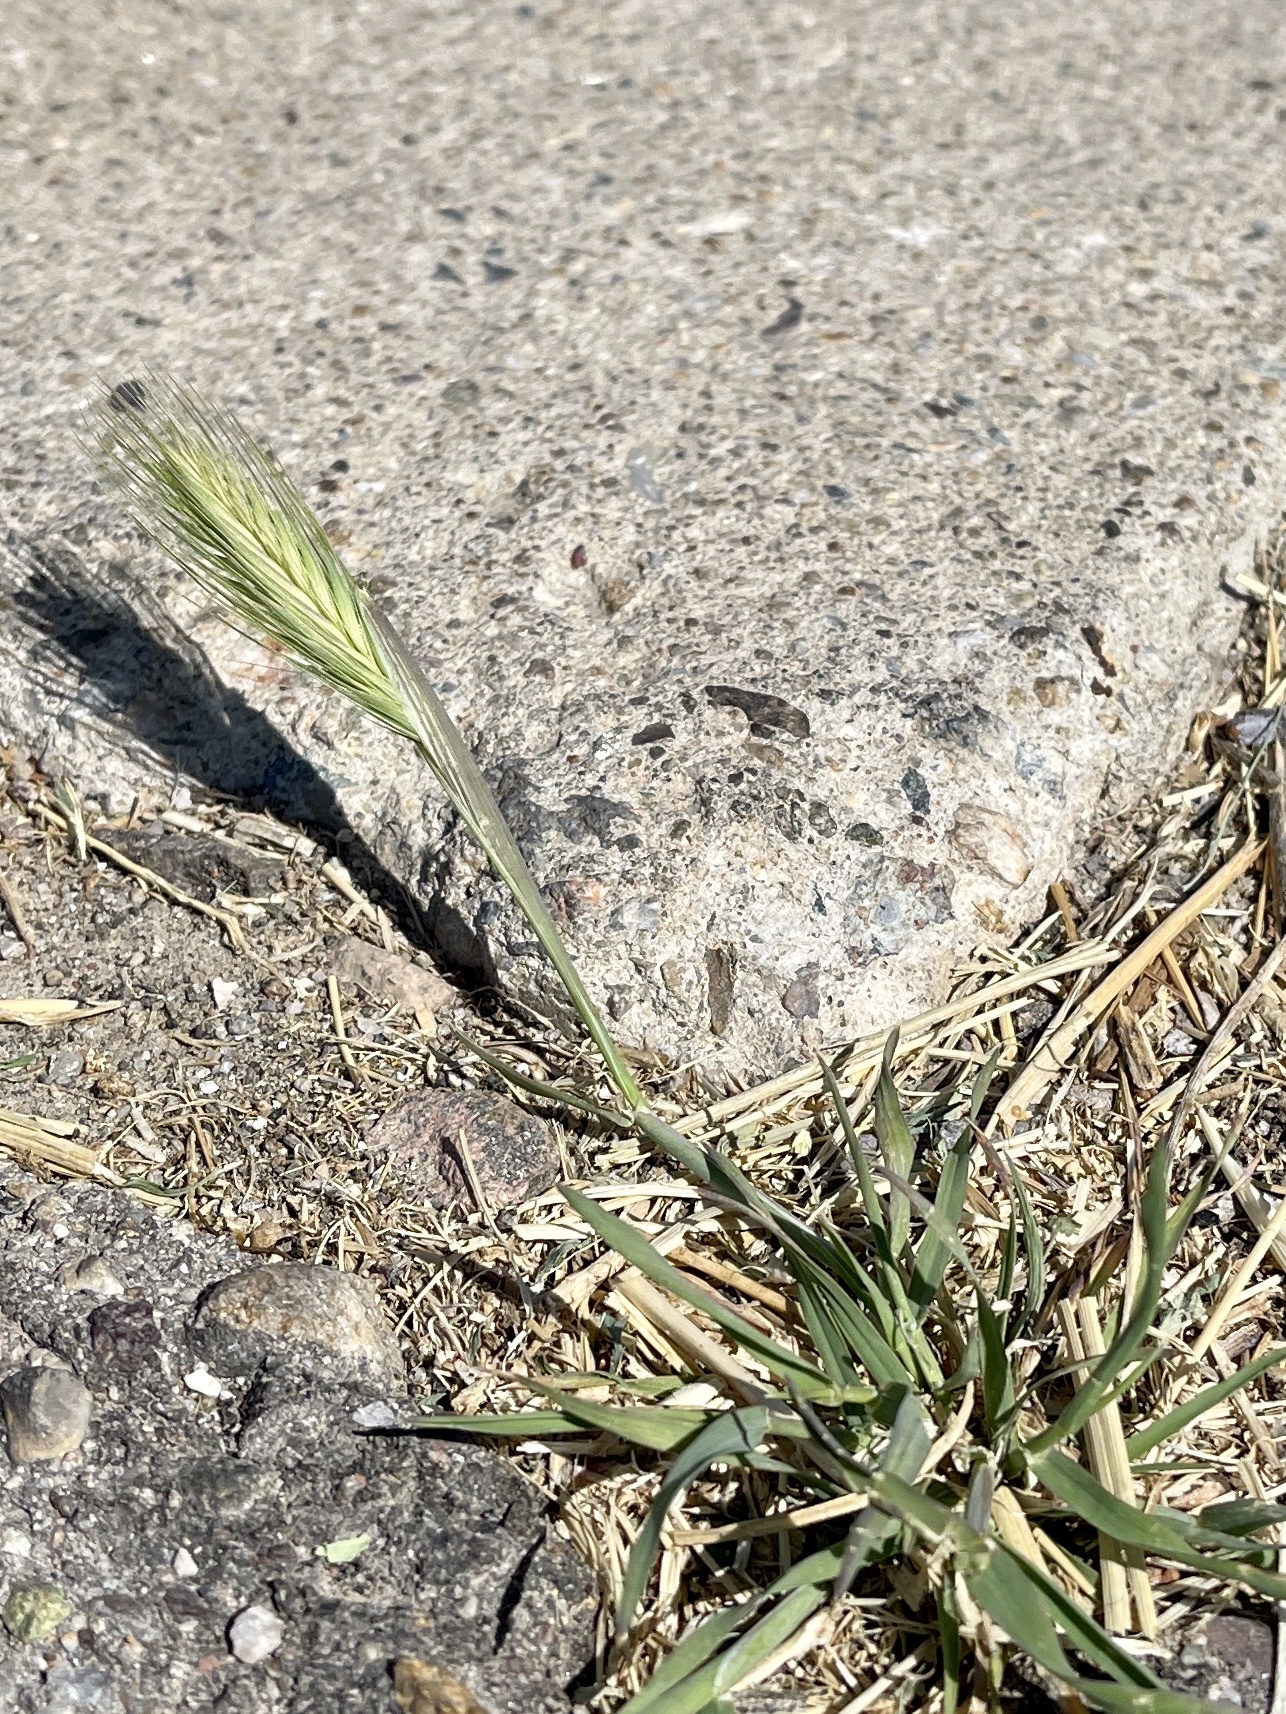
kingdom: Plantae
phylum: Tracheophyta
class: Liliopsida
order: Poales
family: Poaceae
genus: Hordeum
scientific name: Hordeum murinum
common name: Wall barley
